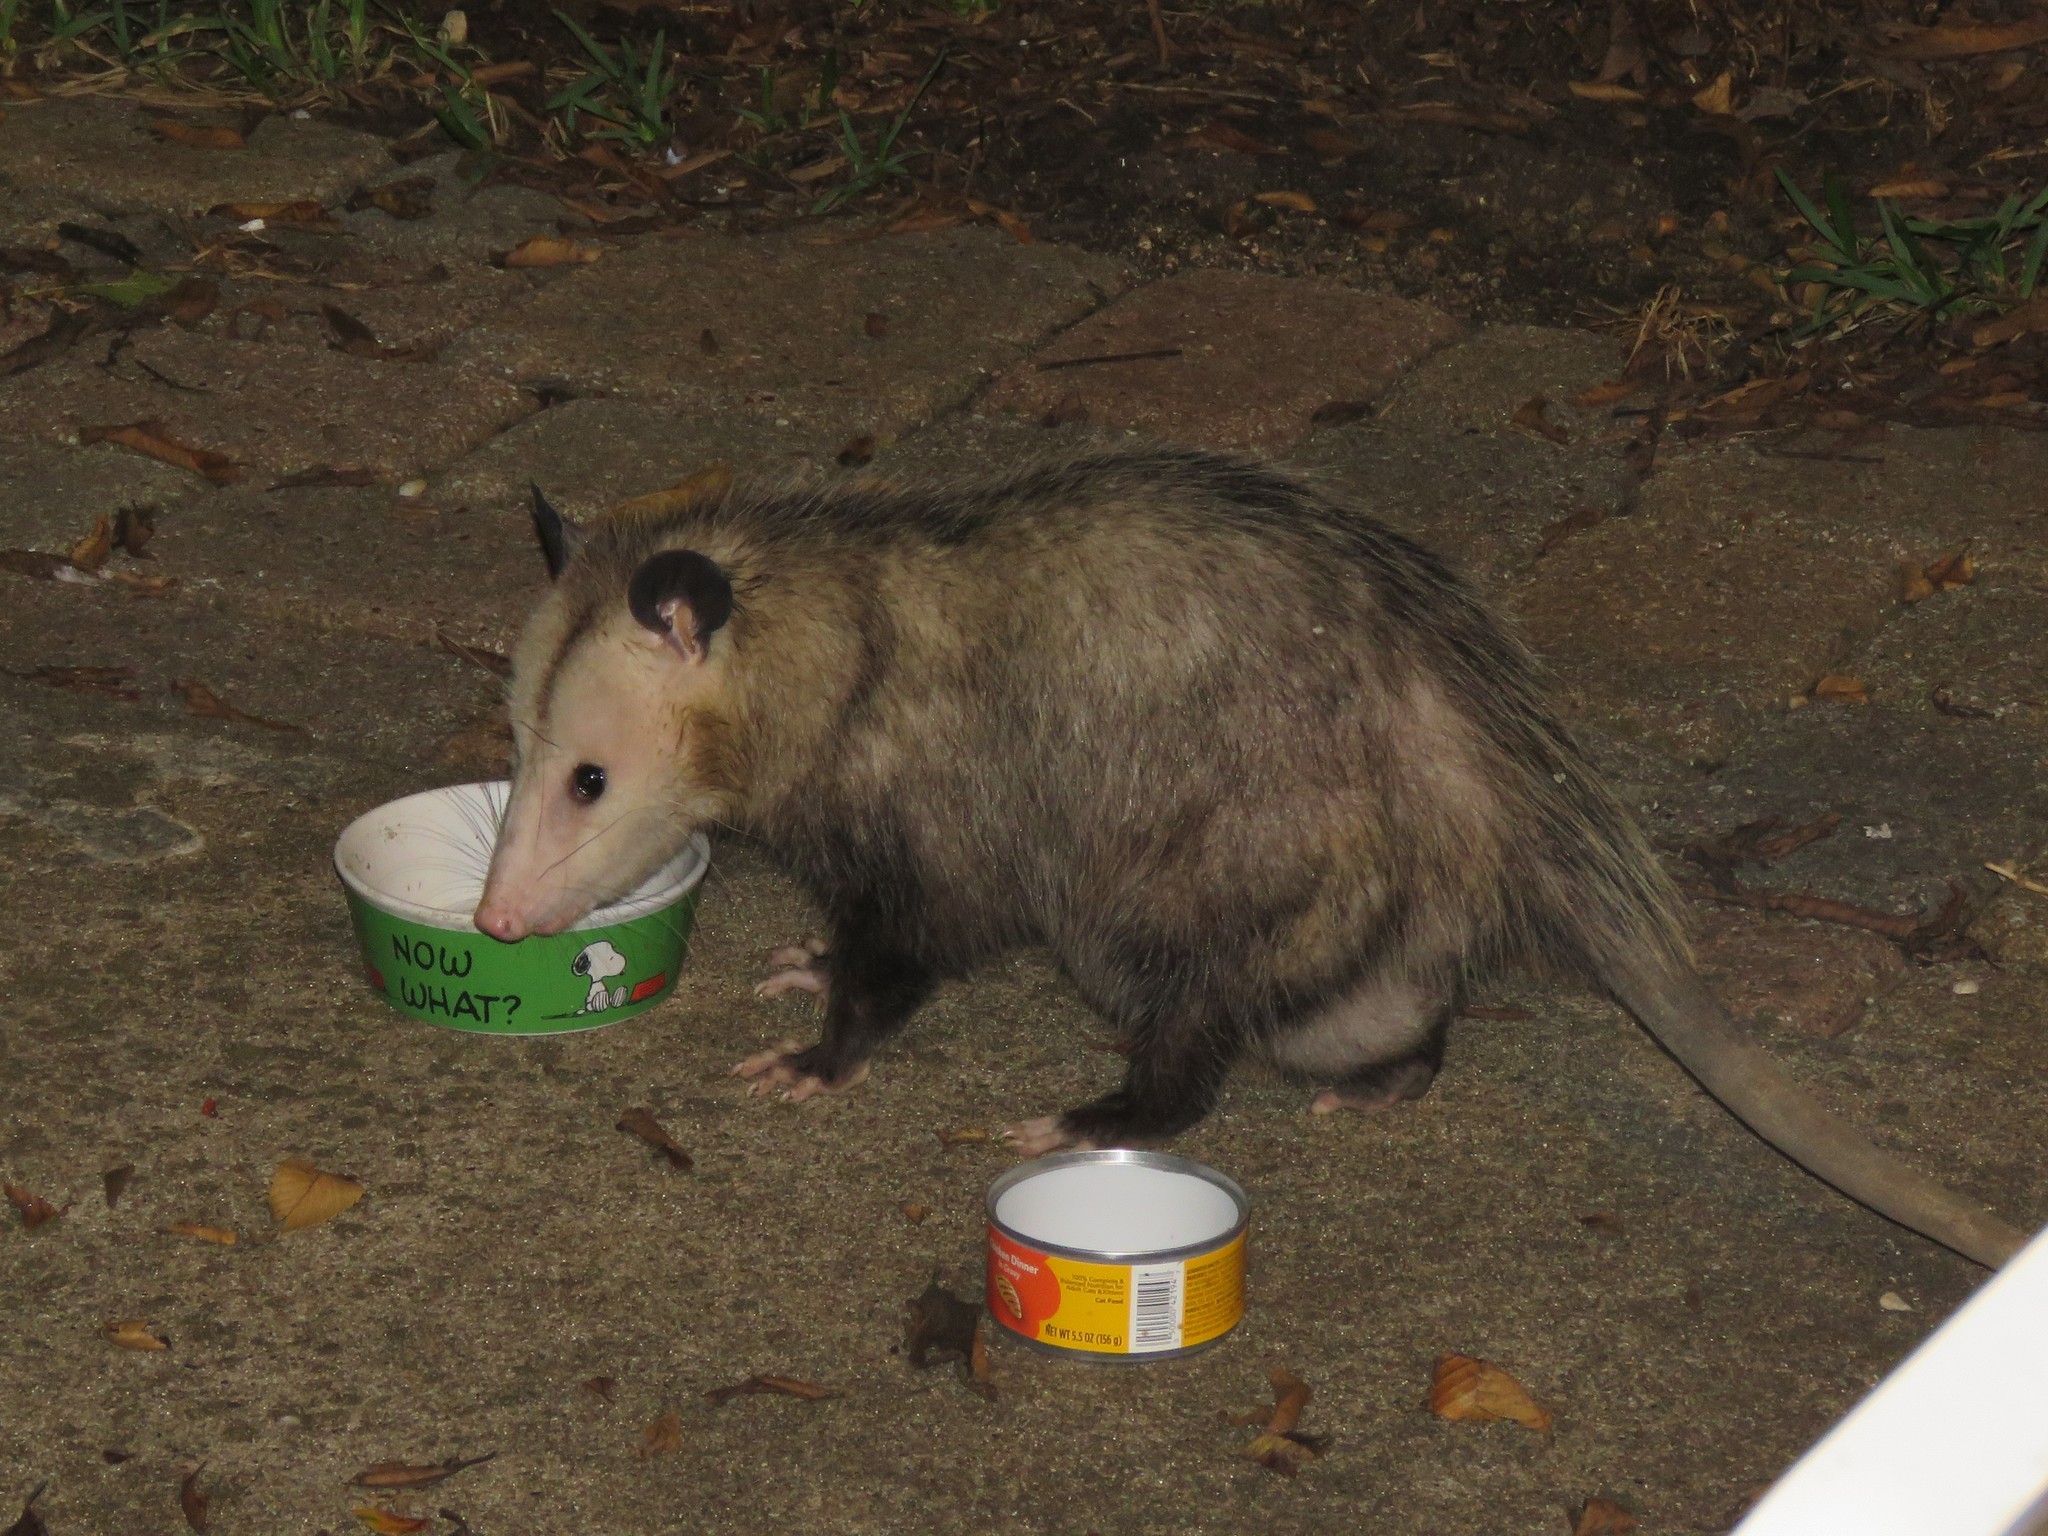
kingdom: Animalia
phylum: Chordata
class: Mammalia
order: Didelphimorphia
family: Didelphidae
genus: Didelphis
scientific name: Didelphis virginiana
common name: Virginia opossum
